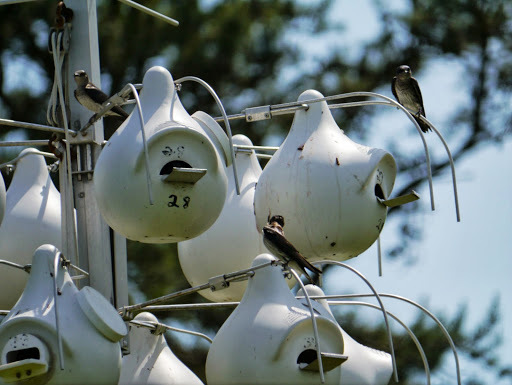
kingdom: Animalia
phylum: Chordata
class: Aves
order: Passeriformes
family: Hirundinidae
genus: Progne
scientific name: Progne subis
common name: Purple martin
